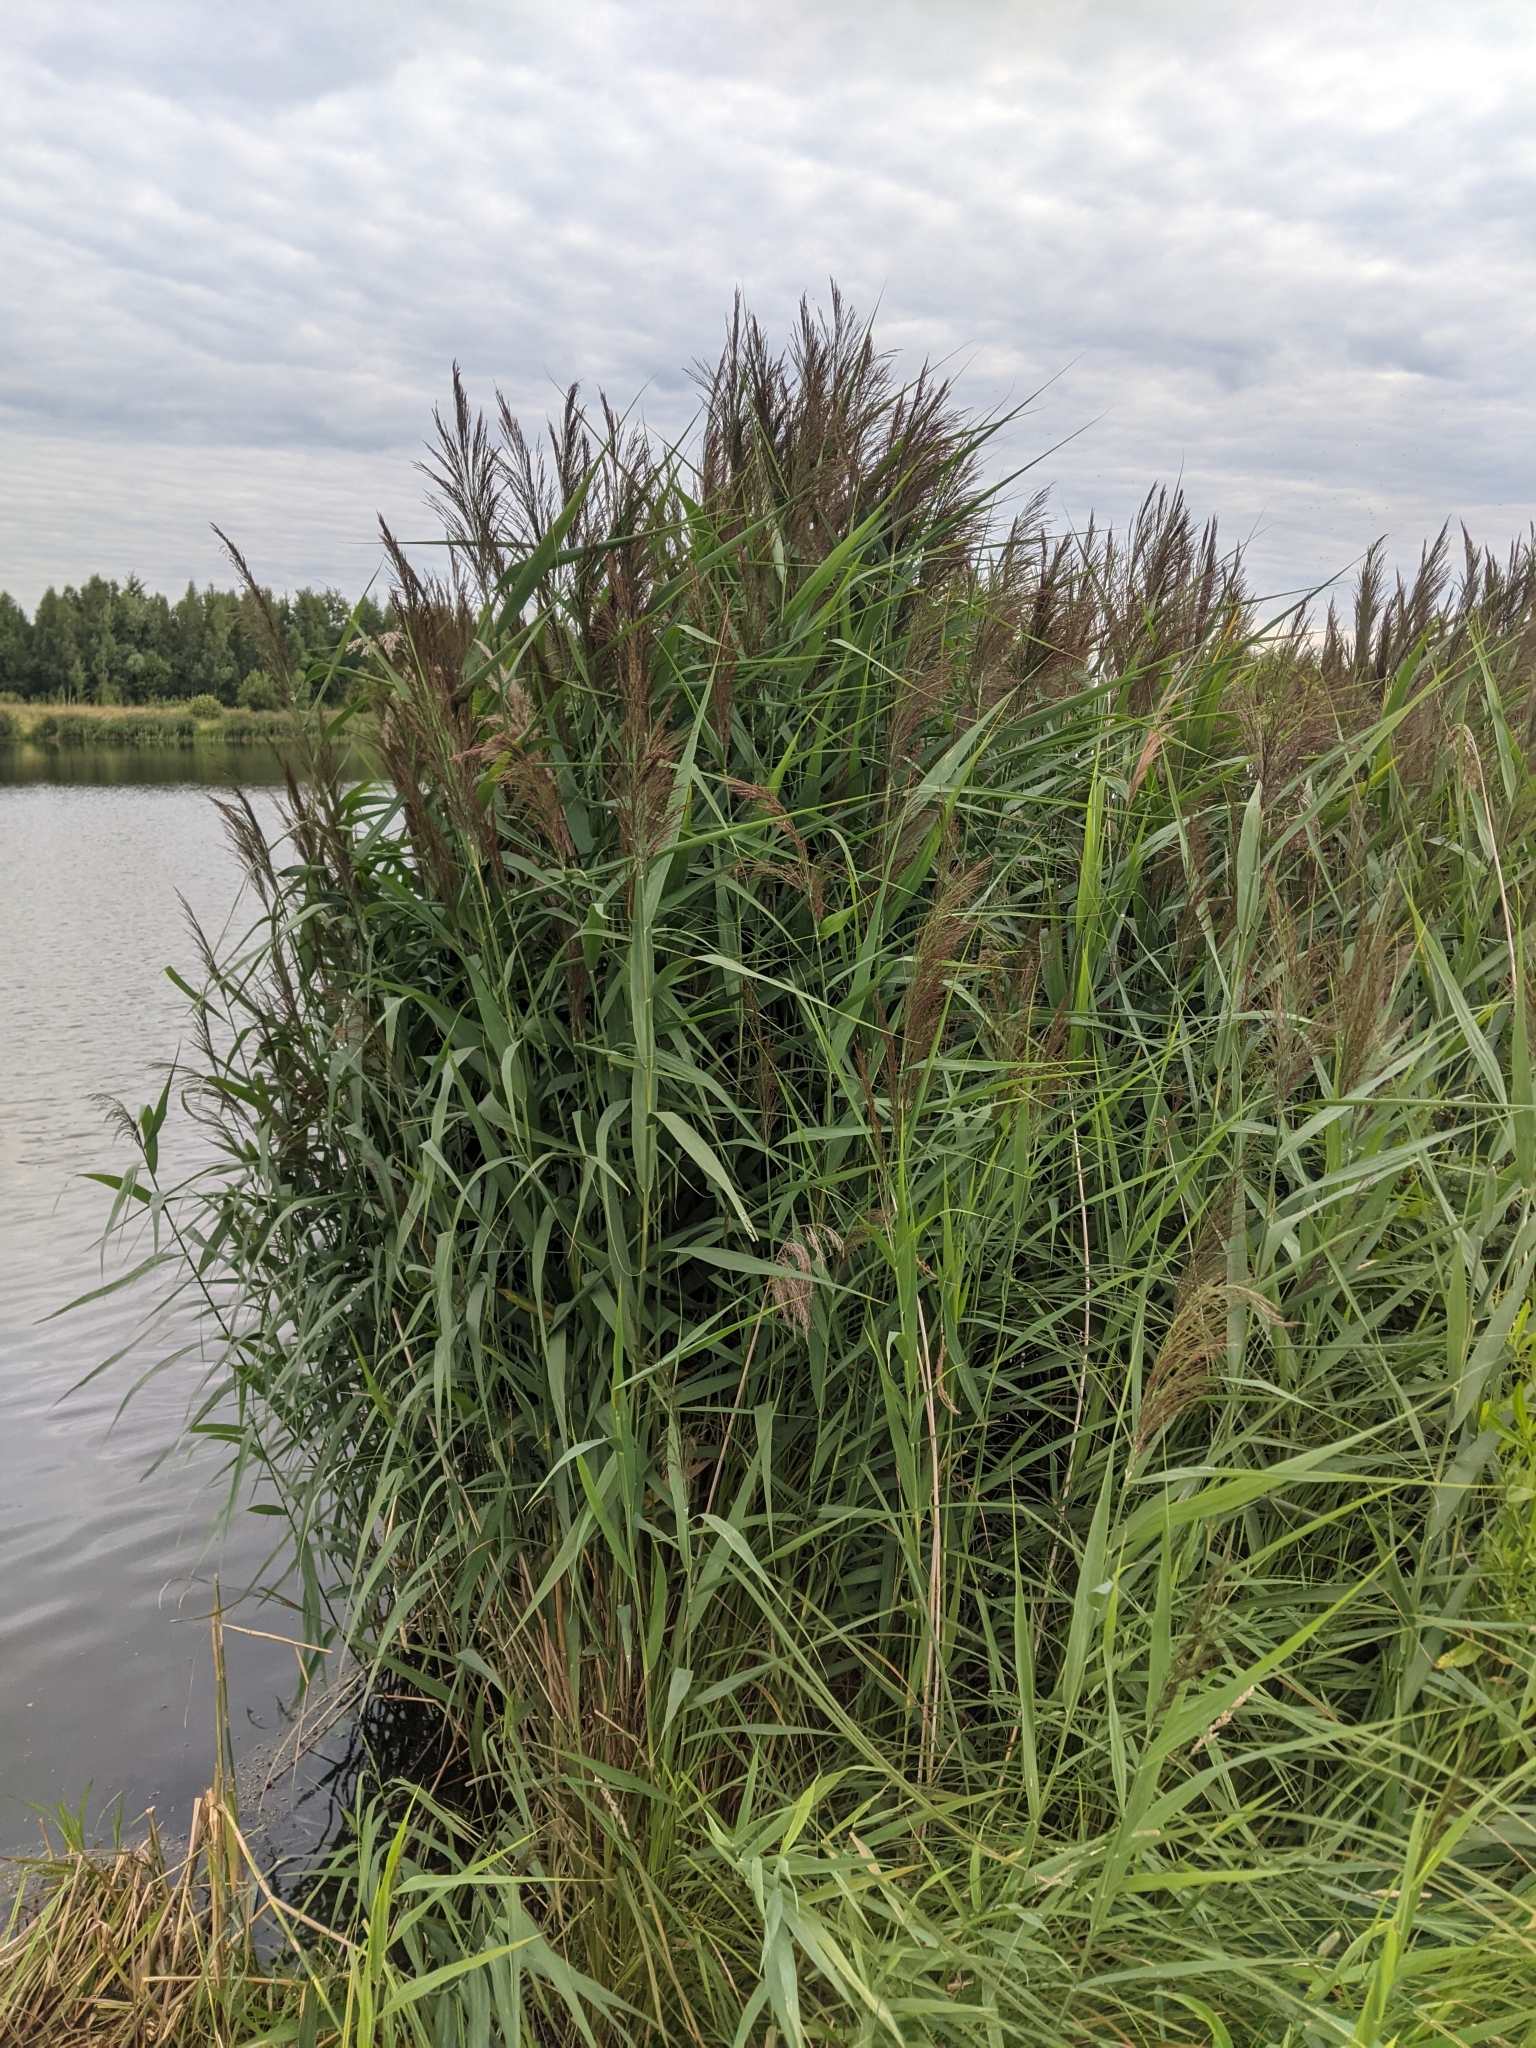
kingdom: Plantae
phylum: Tracheophyta
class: Liliopsida
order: Poales
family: Poaceae
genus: Phragmites
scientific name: Phragmites australis
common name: Common reed
